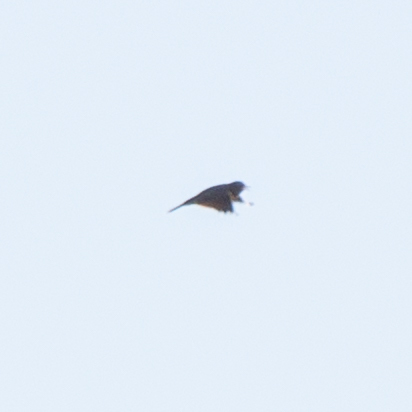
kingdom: Animalia
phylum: Chordata
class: Aves
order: Passeriformes
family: Alaudidae
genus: Alauda
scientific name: Alauda arvensis
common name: Eurasian skylark
